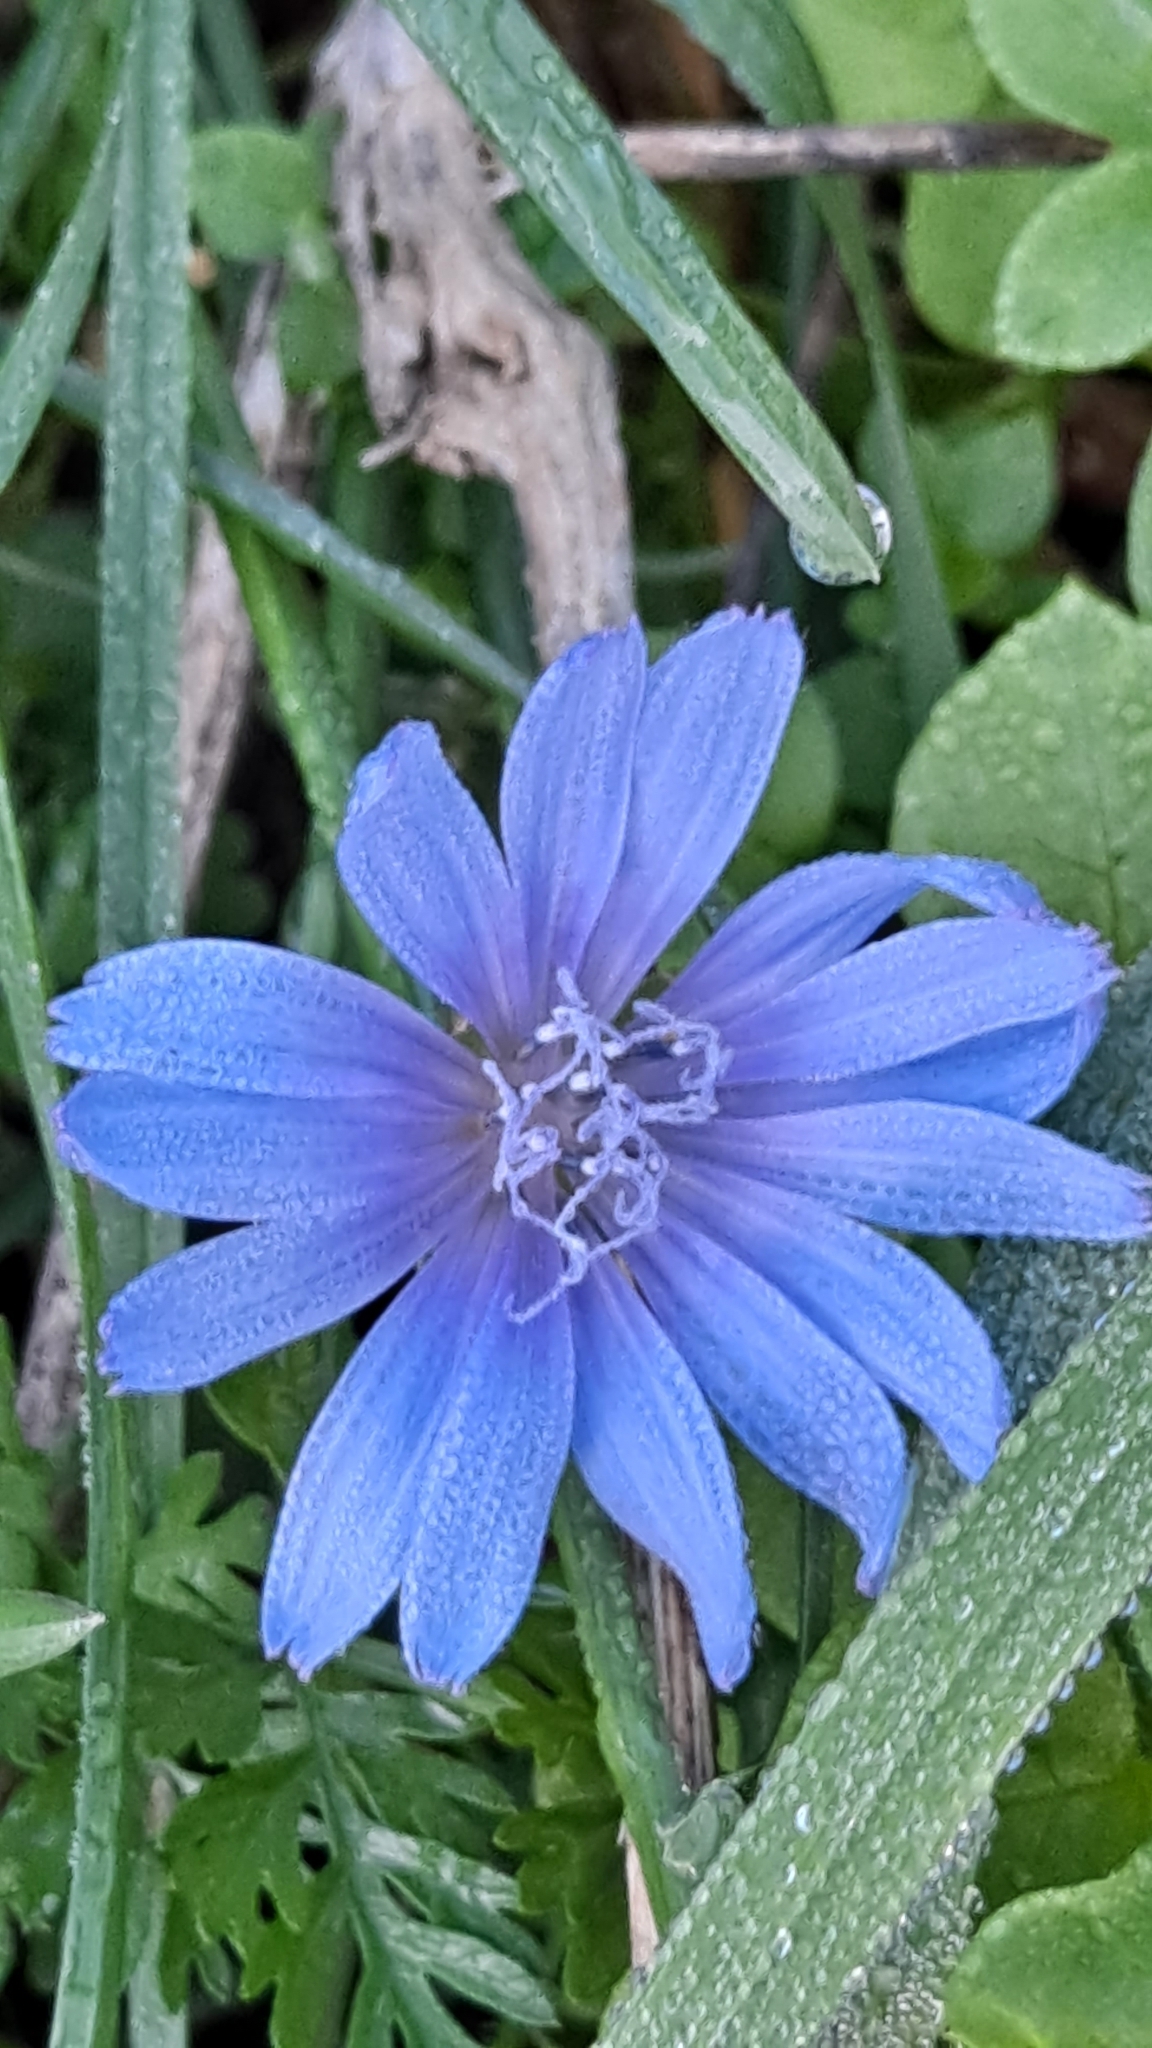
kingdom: Plantae
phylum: Tracheophyta
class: Magnoliopsida
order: Asterales
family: Asteraceae
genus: Cichorium
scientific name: Cichorium intybus
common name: Chicory
